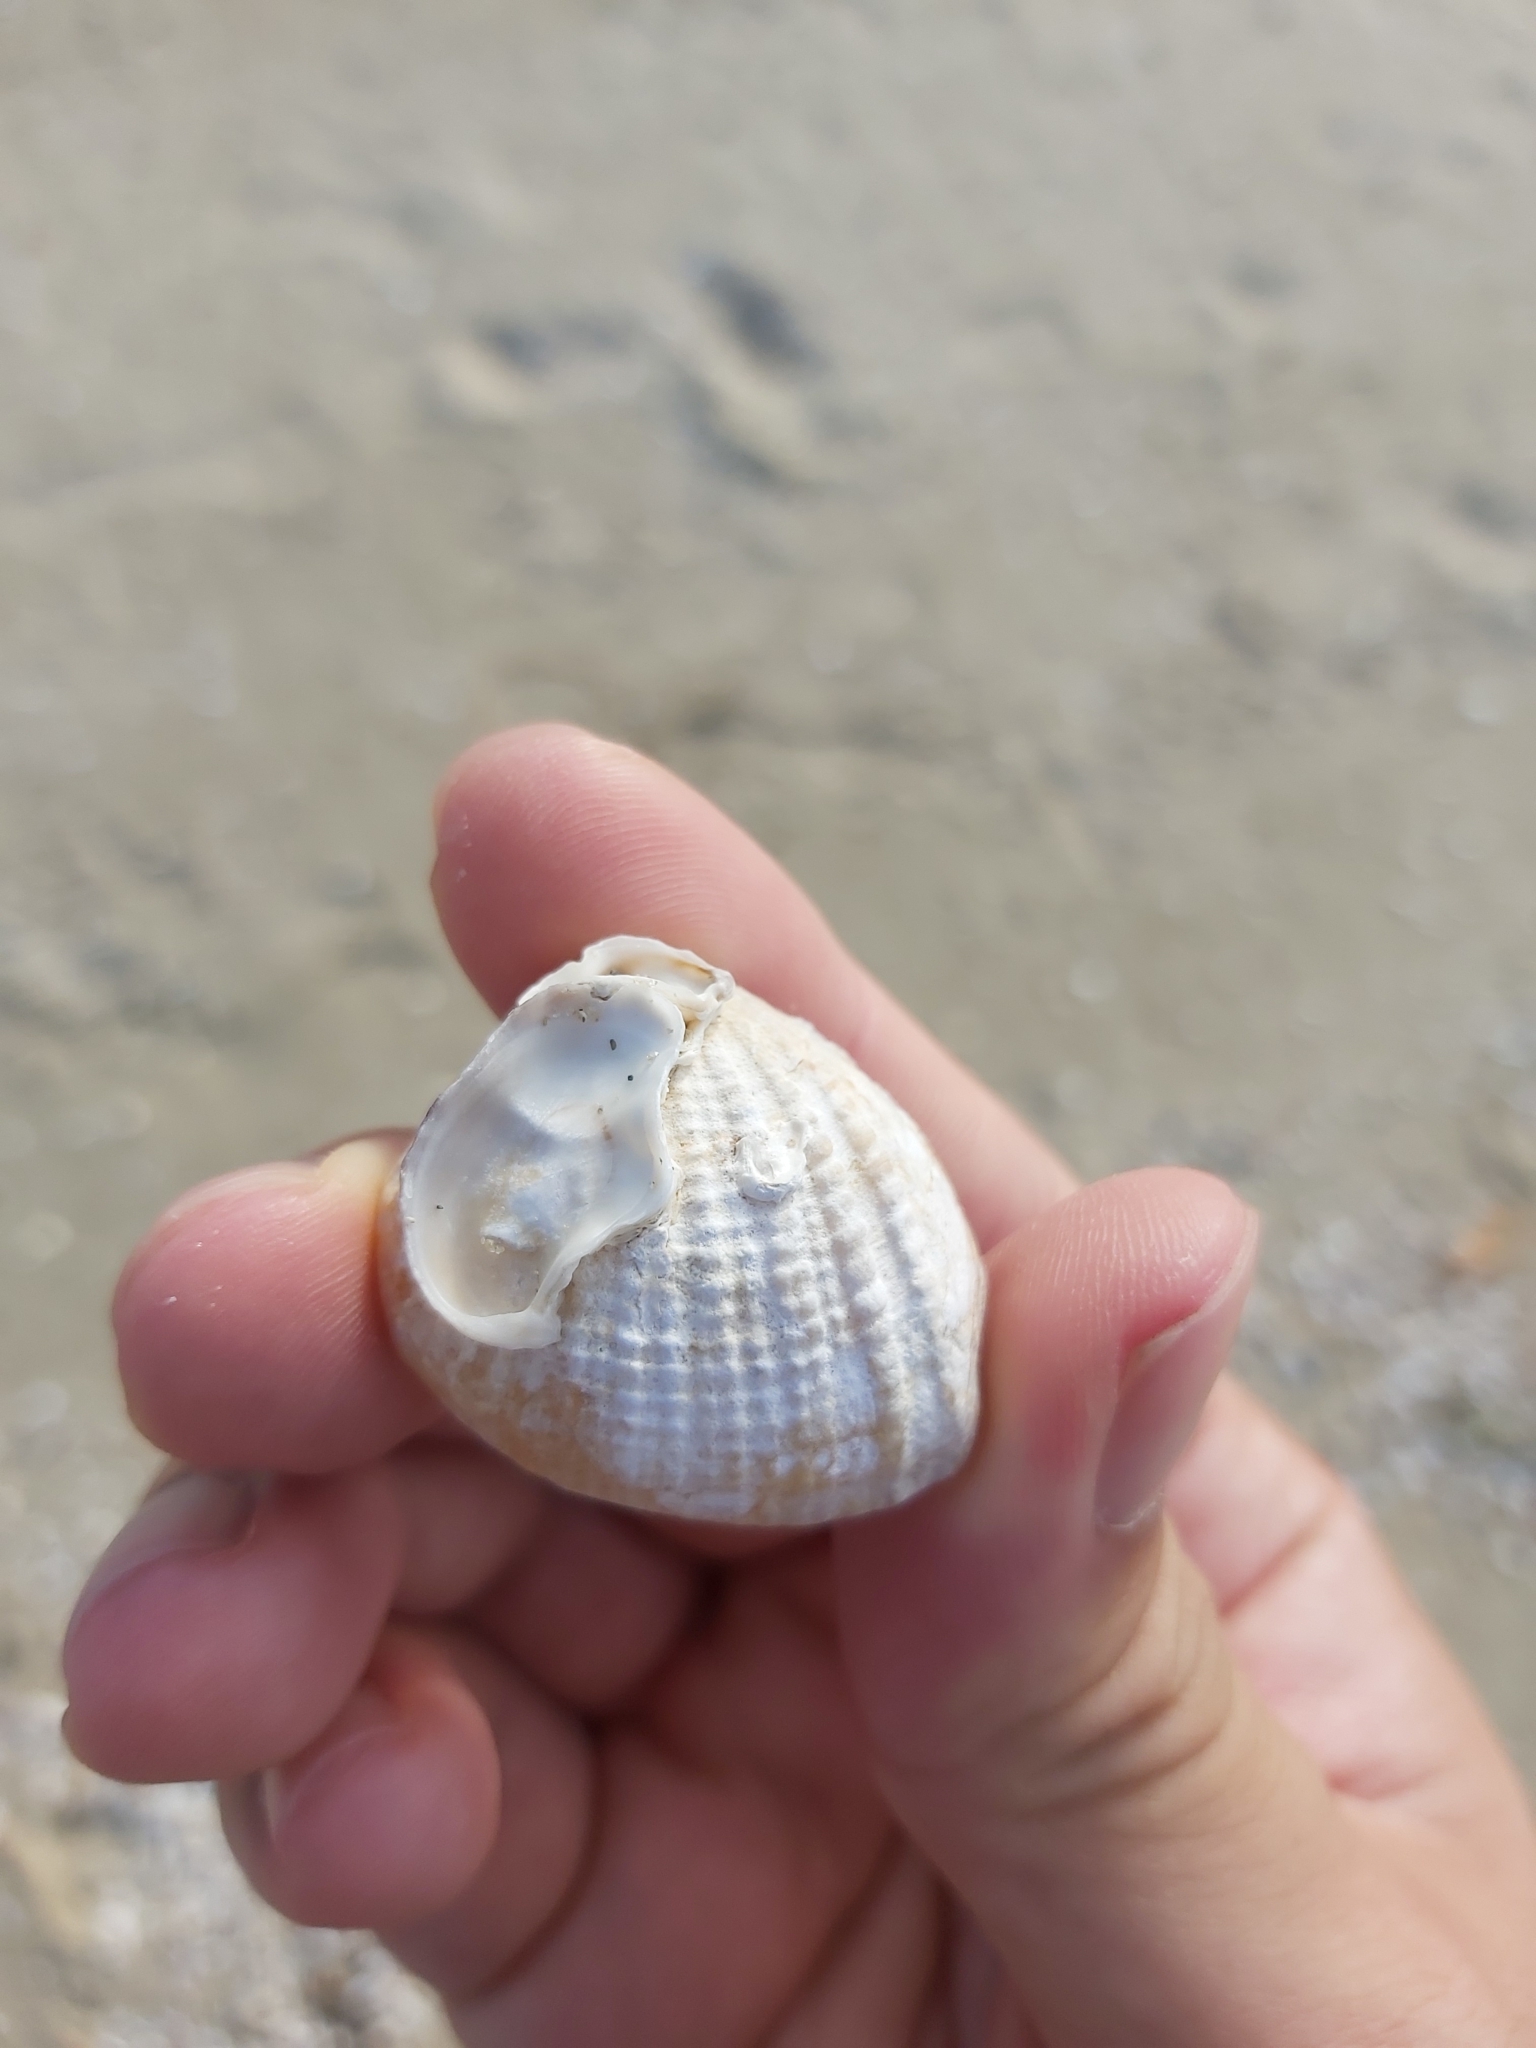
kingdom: Animalia
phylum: Mollusca
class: Bivalvia
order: Venerida
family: Veneridae
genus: Gafrarium
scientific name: Gafrarium pectinatum
